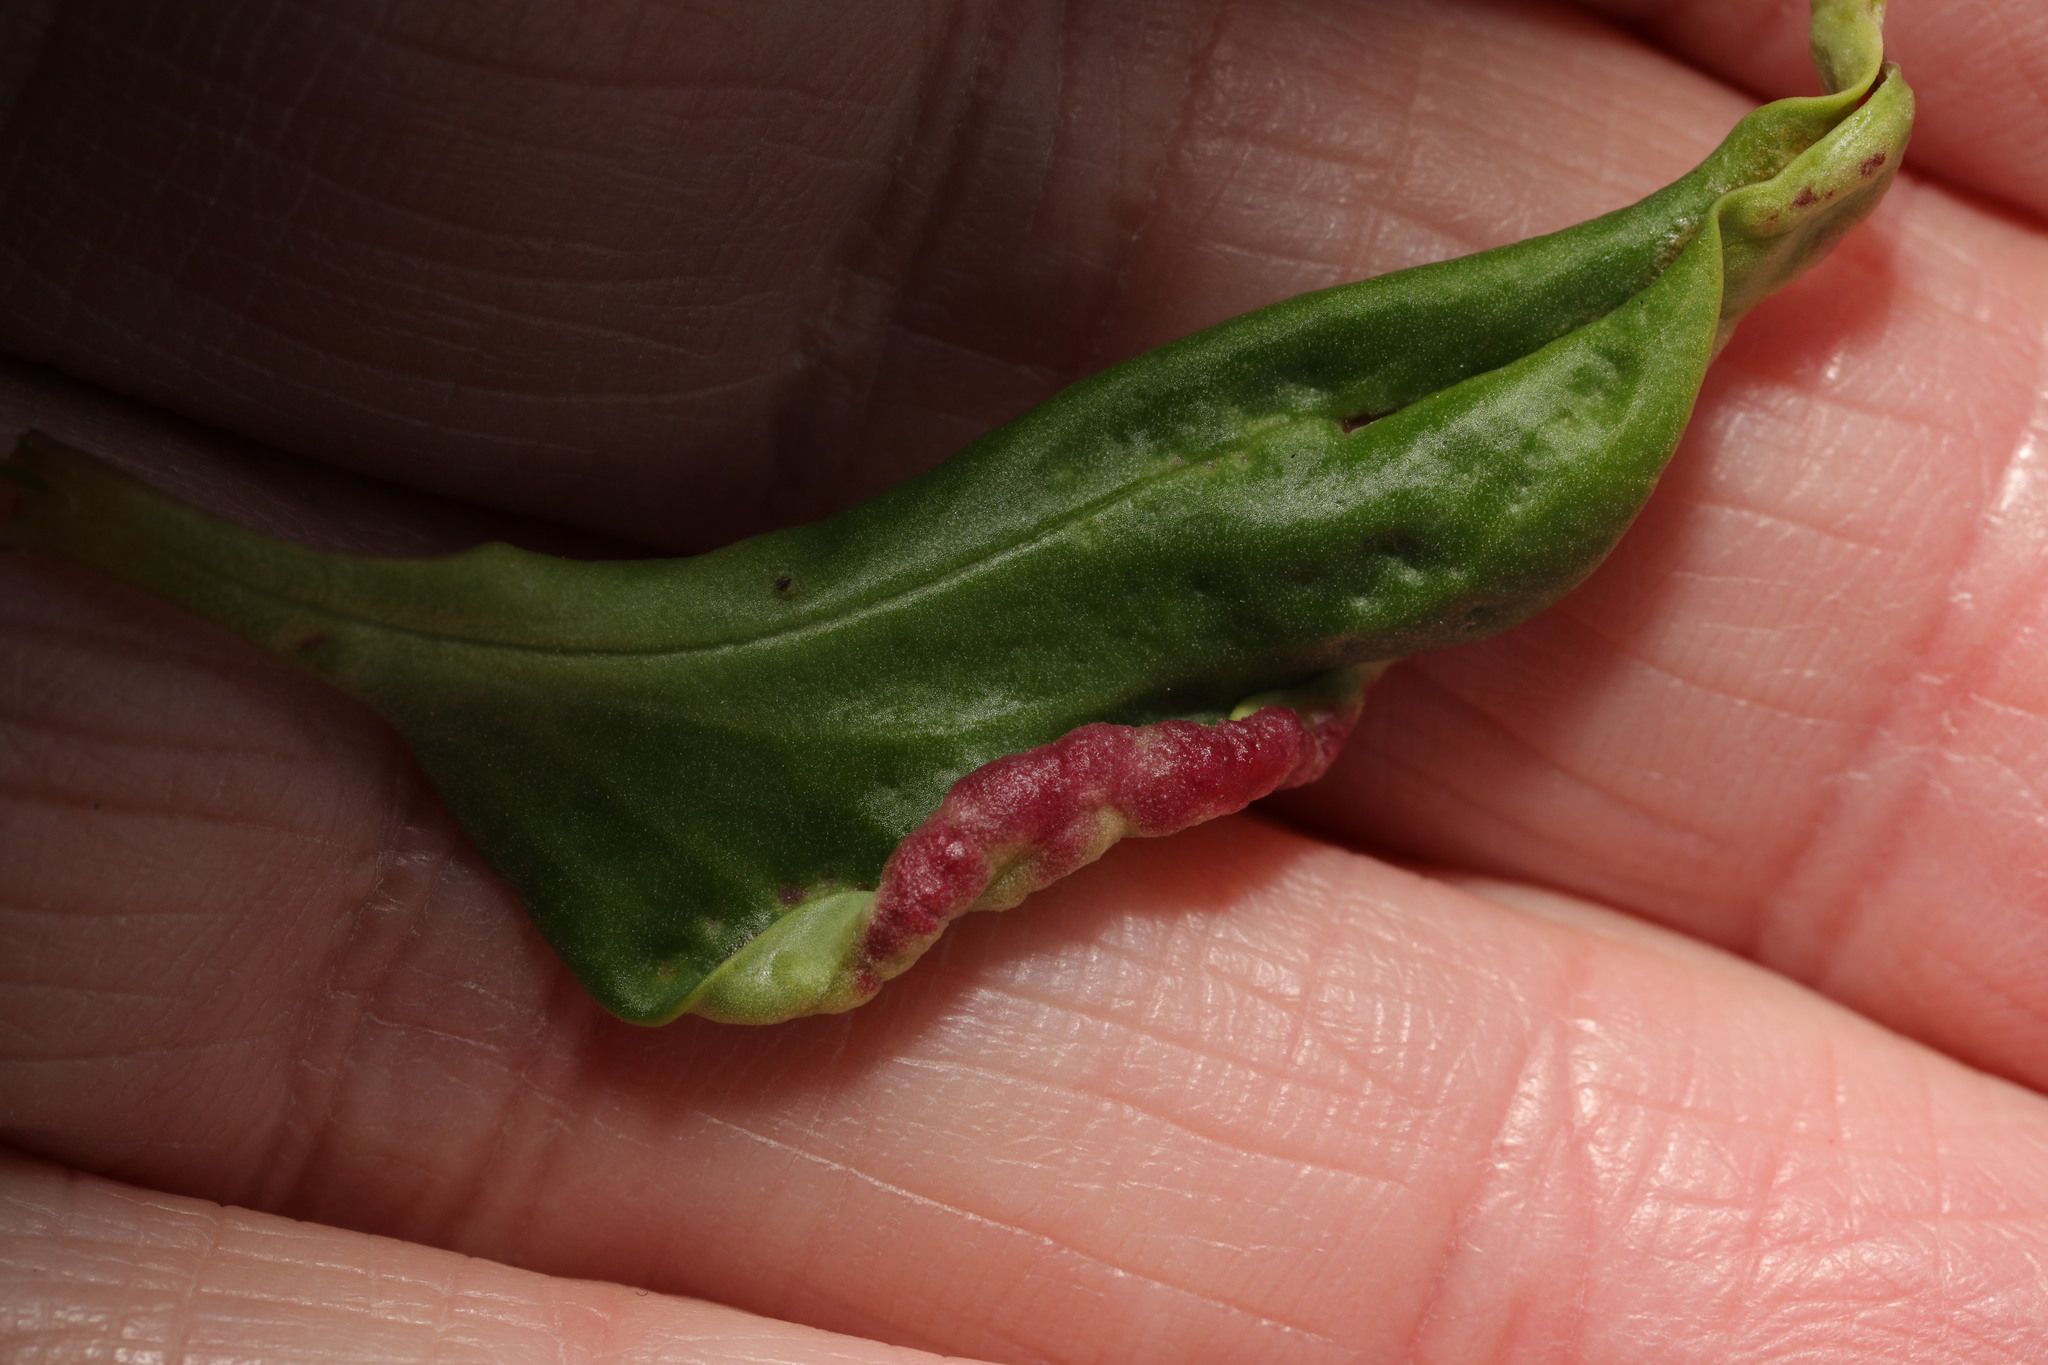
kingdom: Animalia
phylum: Arthropoda
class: Insecta
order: Hemiptera
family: Triozidae
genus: Trioza
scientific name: Trioza centranthi
